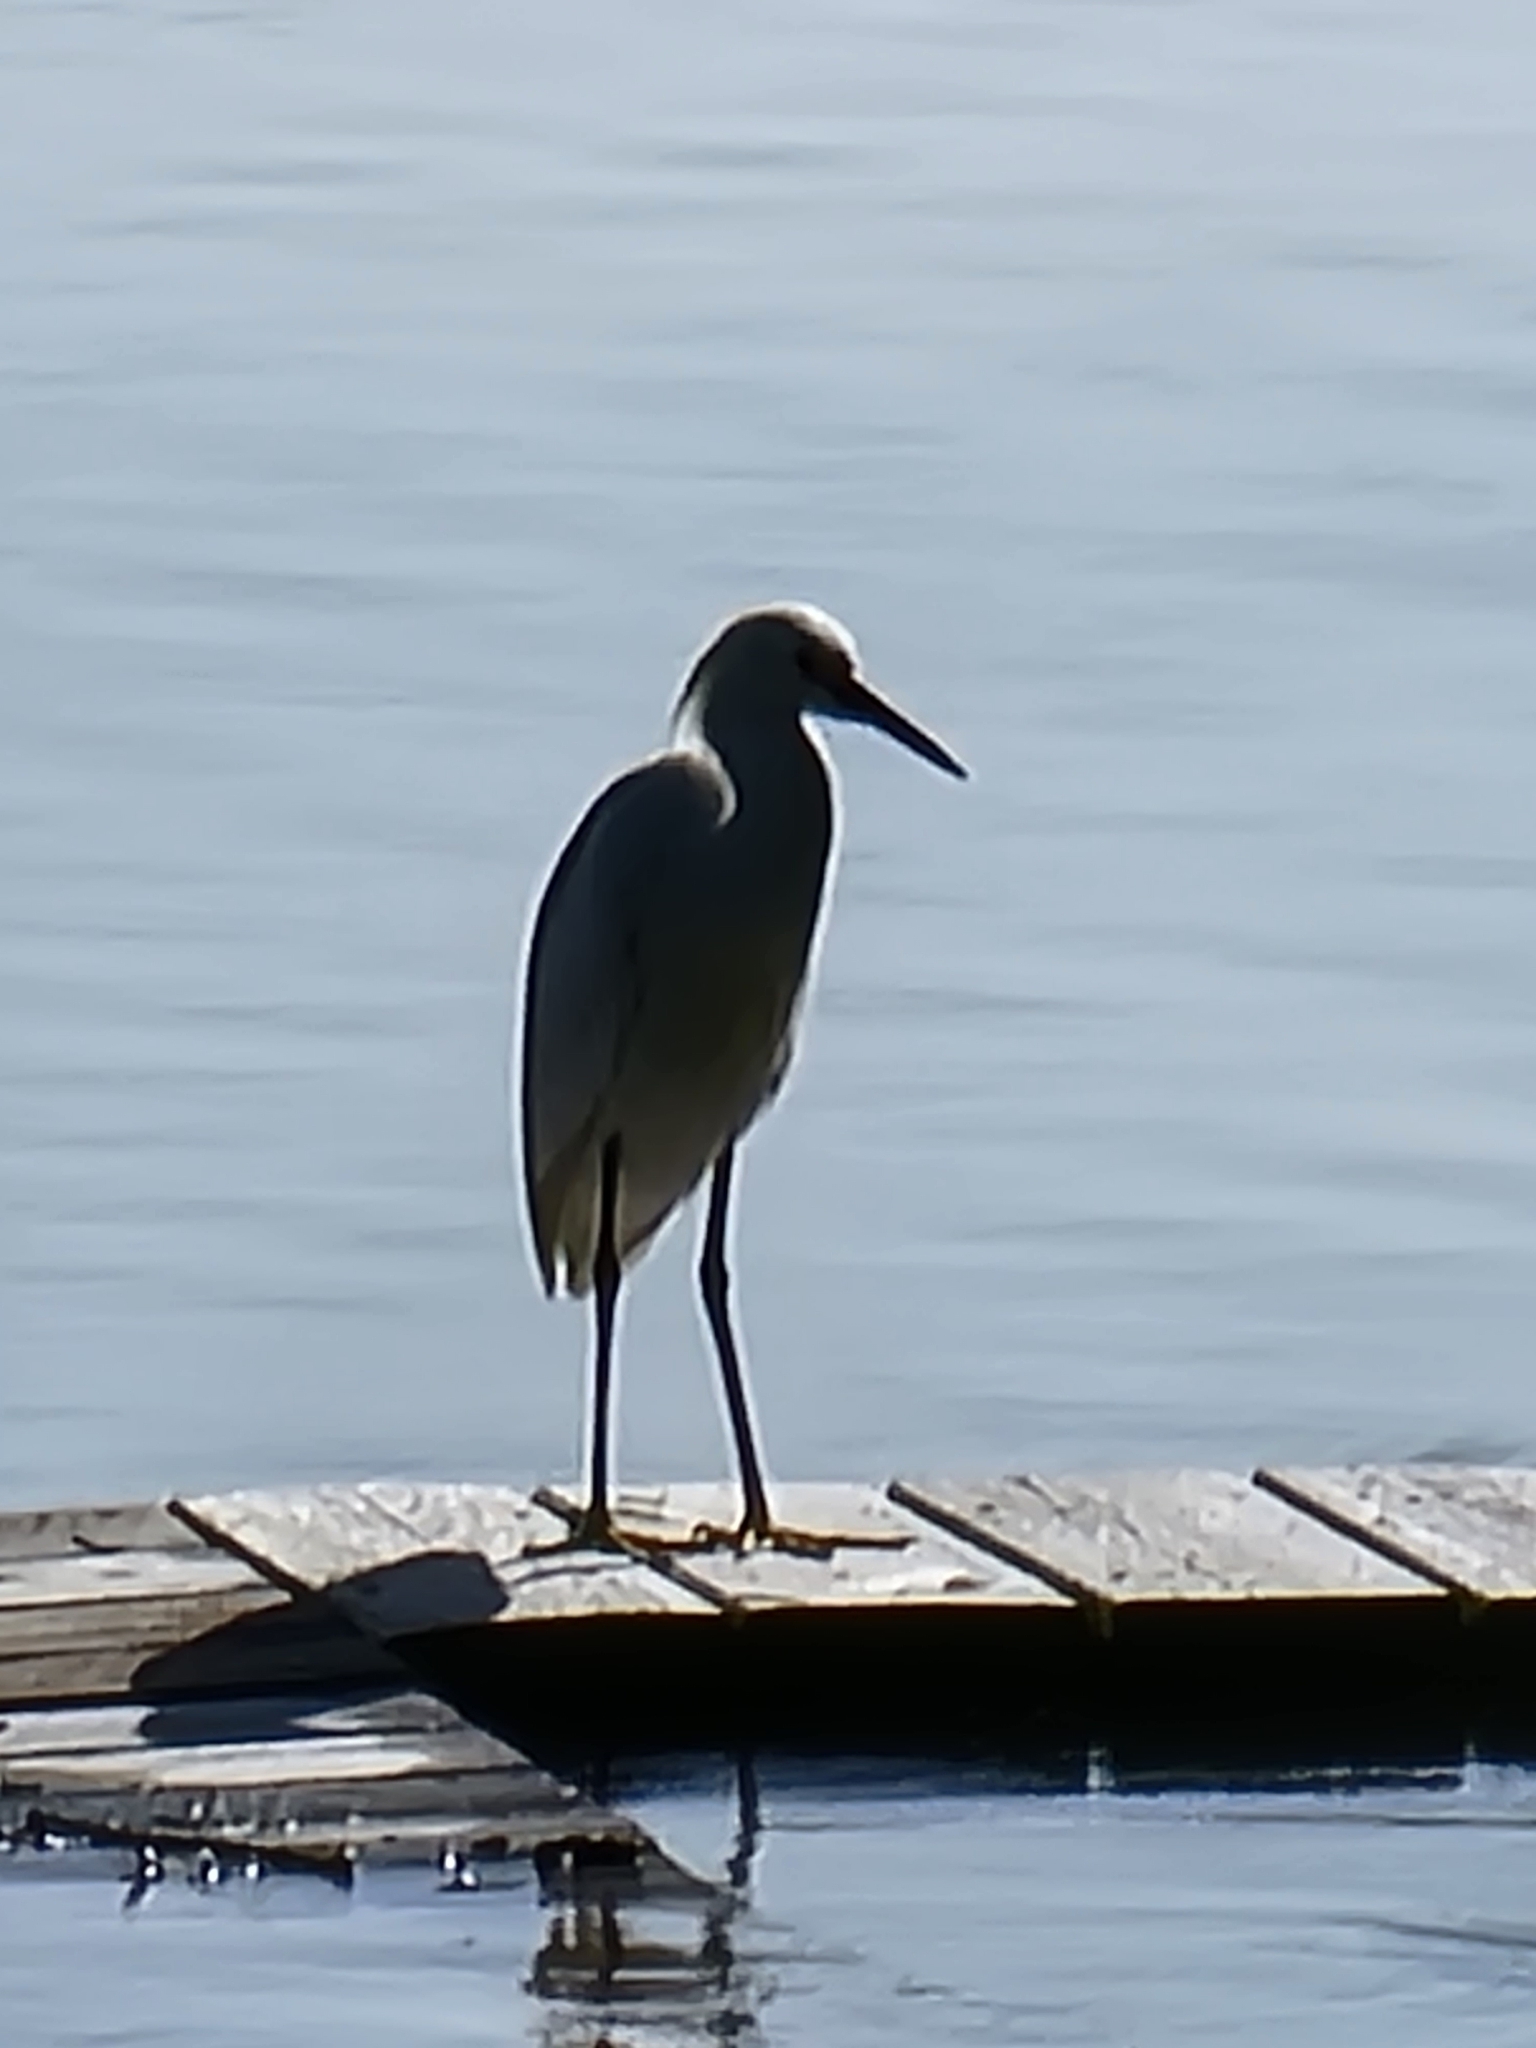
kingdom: Animalia
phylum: Chordata
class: Aves
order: Pelecaniformes
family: Ardeidae
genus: Egretta
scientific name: Egretta thula
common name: Snowy egret
